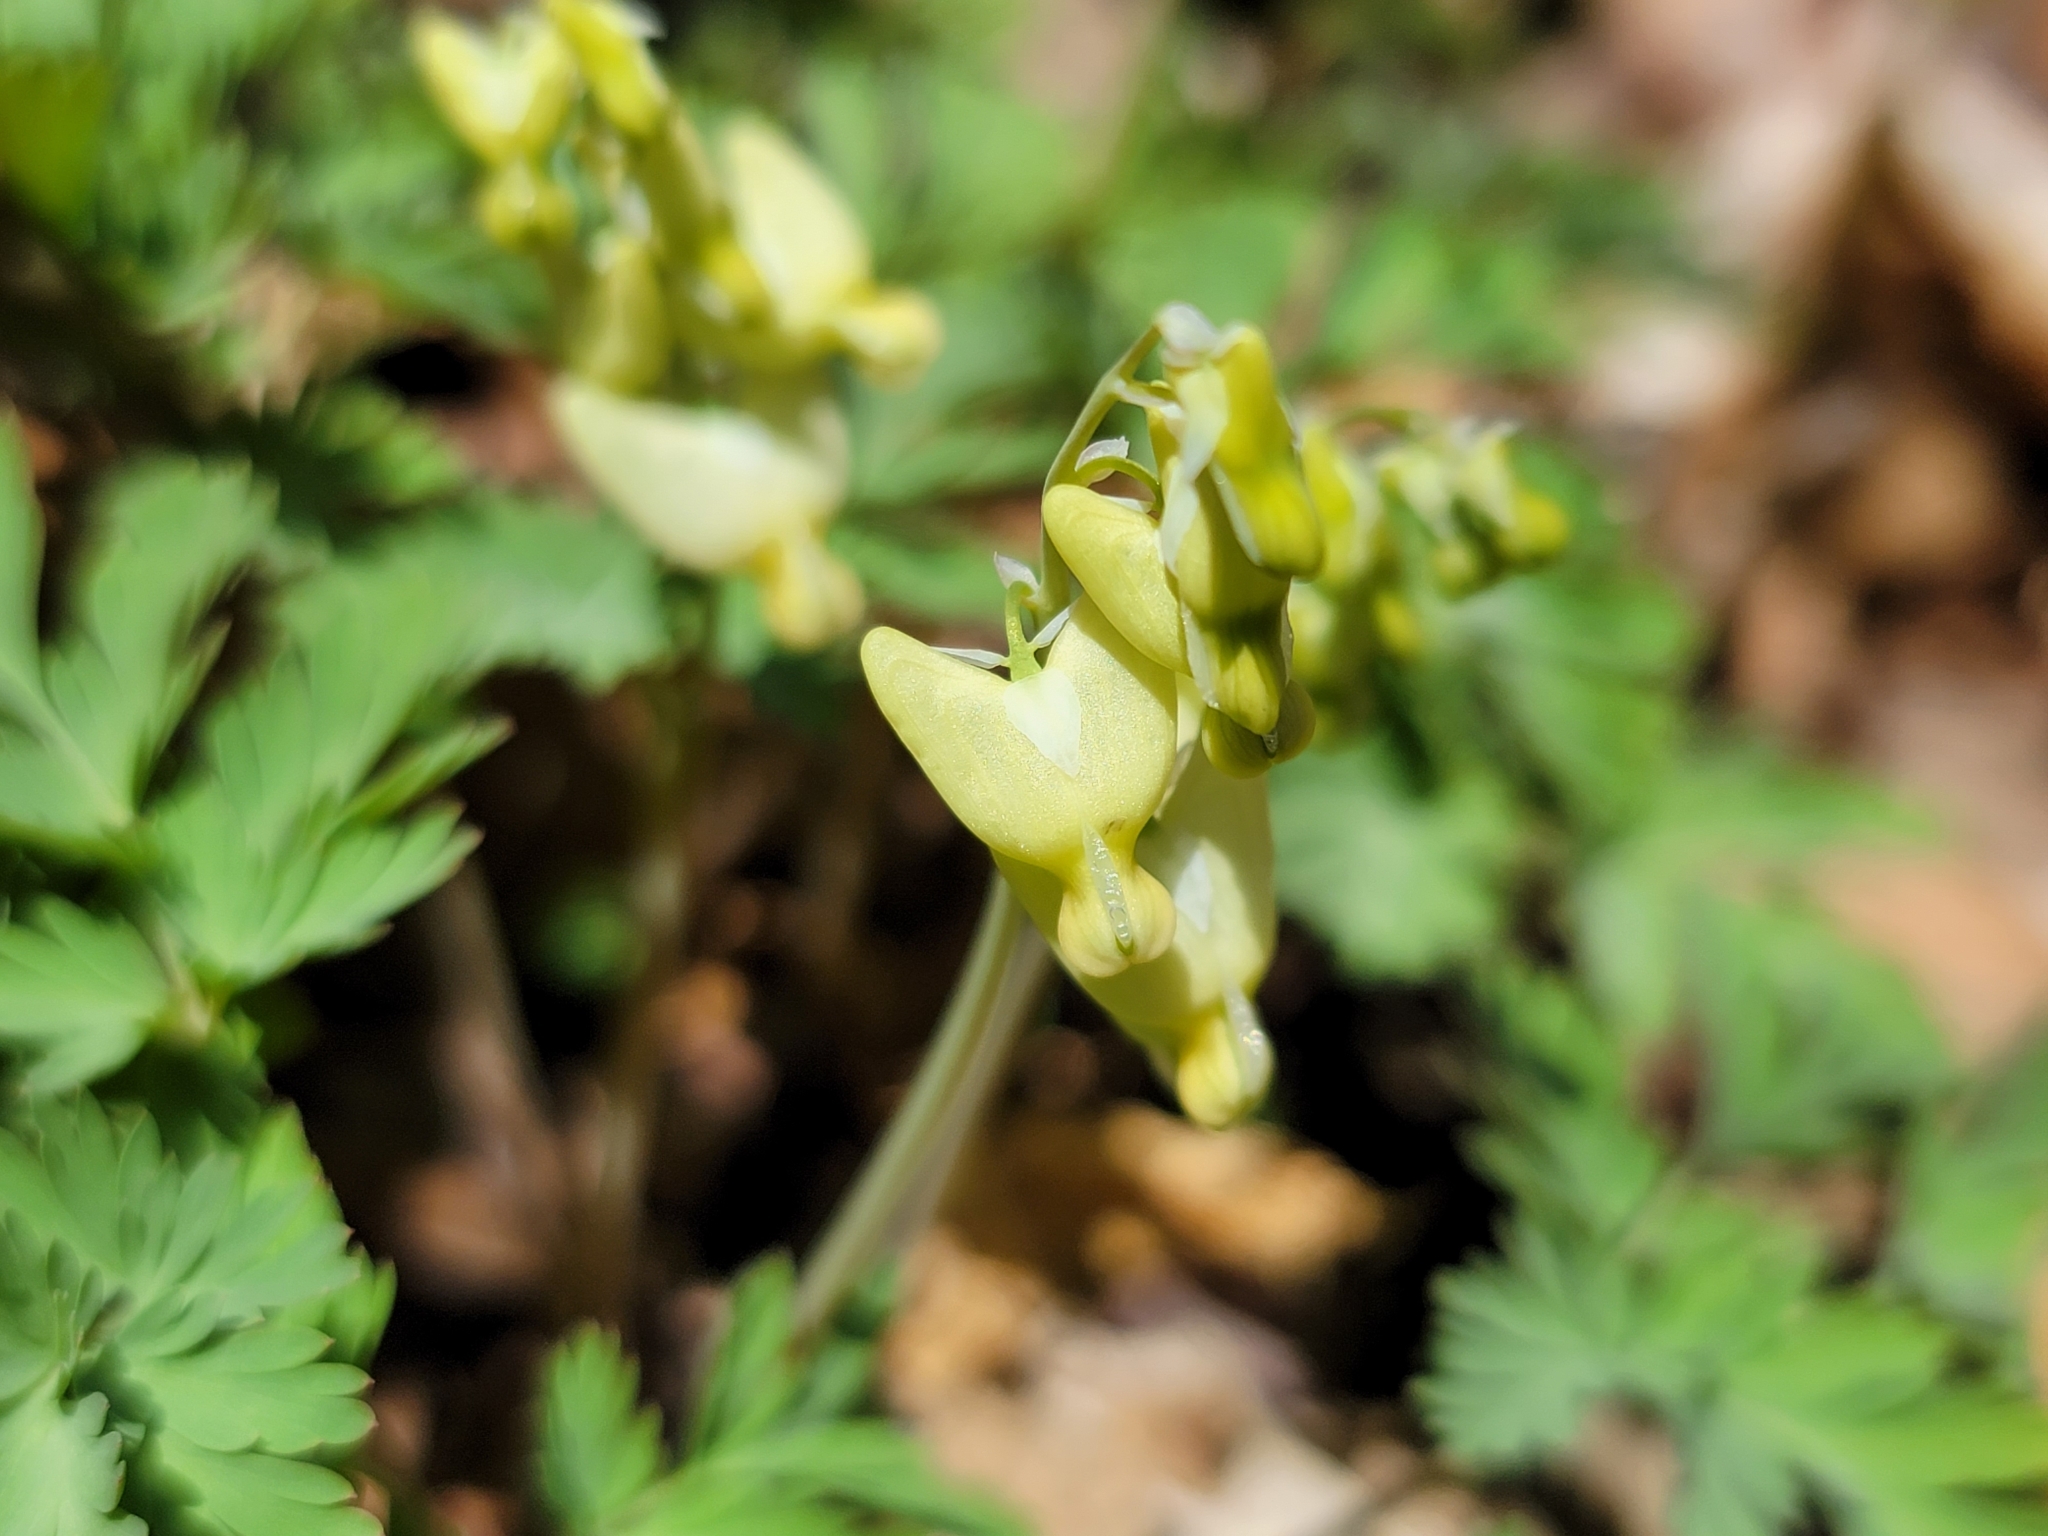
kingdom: Plantae
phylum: Tracheophyta
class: Magnoliopsida
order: Ranunculales
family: Papaveraceae
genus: Dicentra
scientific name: Dicentra cucullaria
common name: Dutchman's breeches
